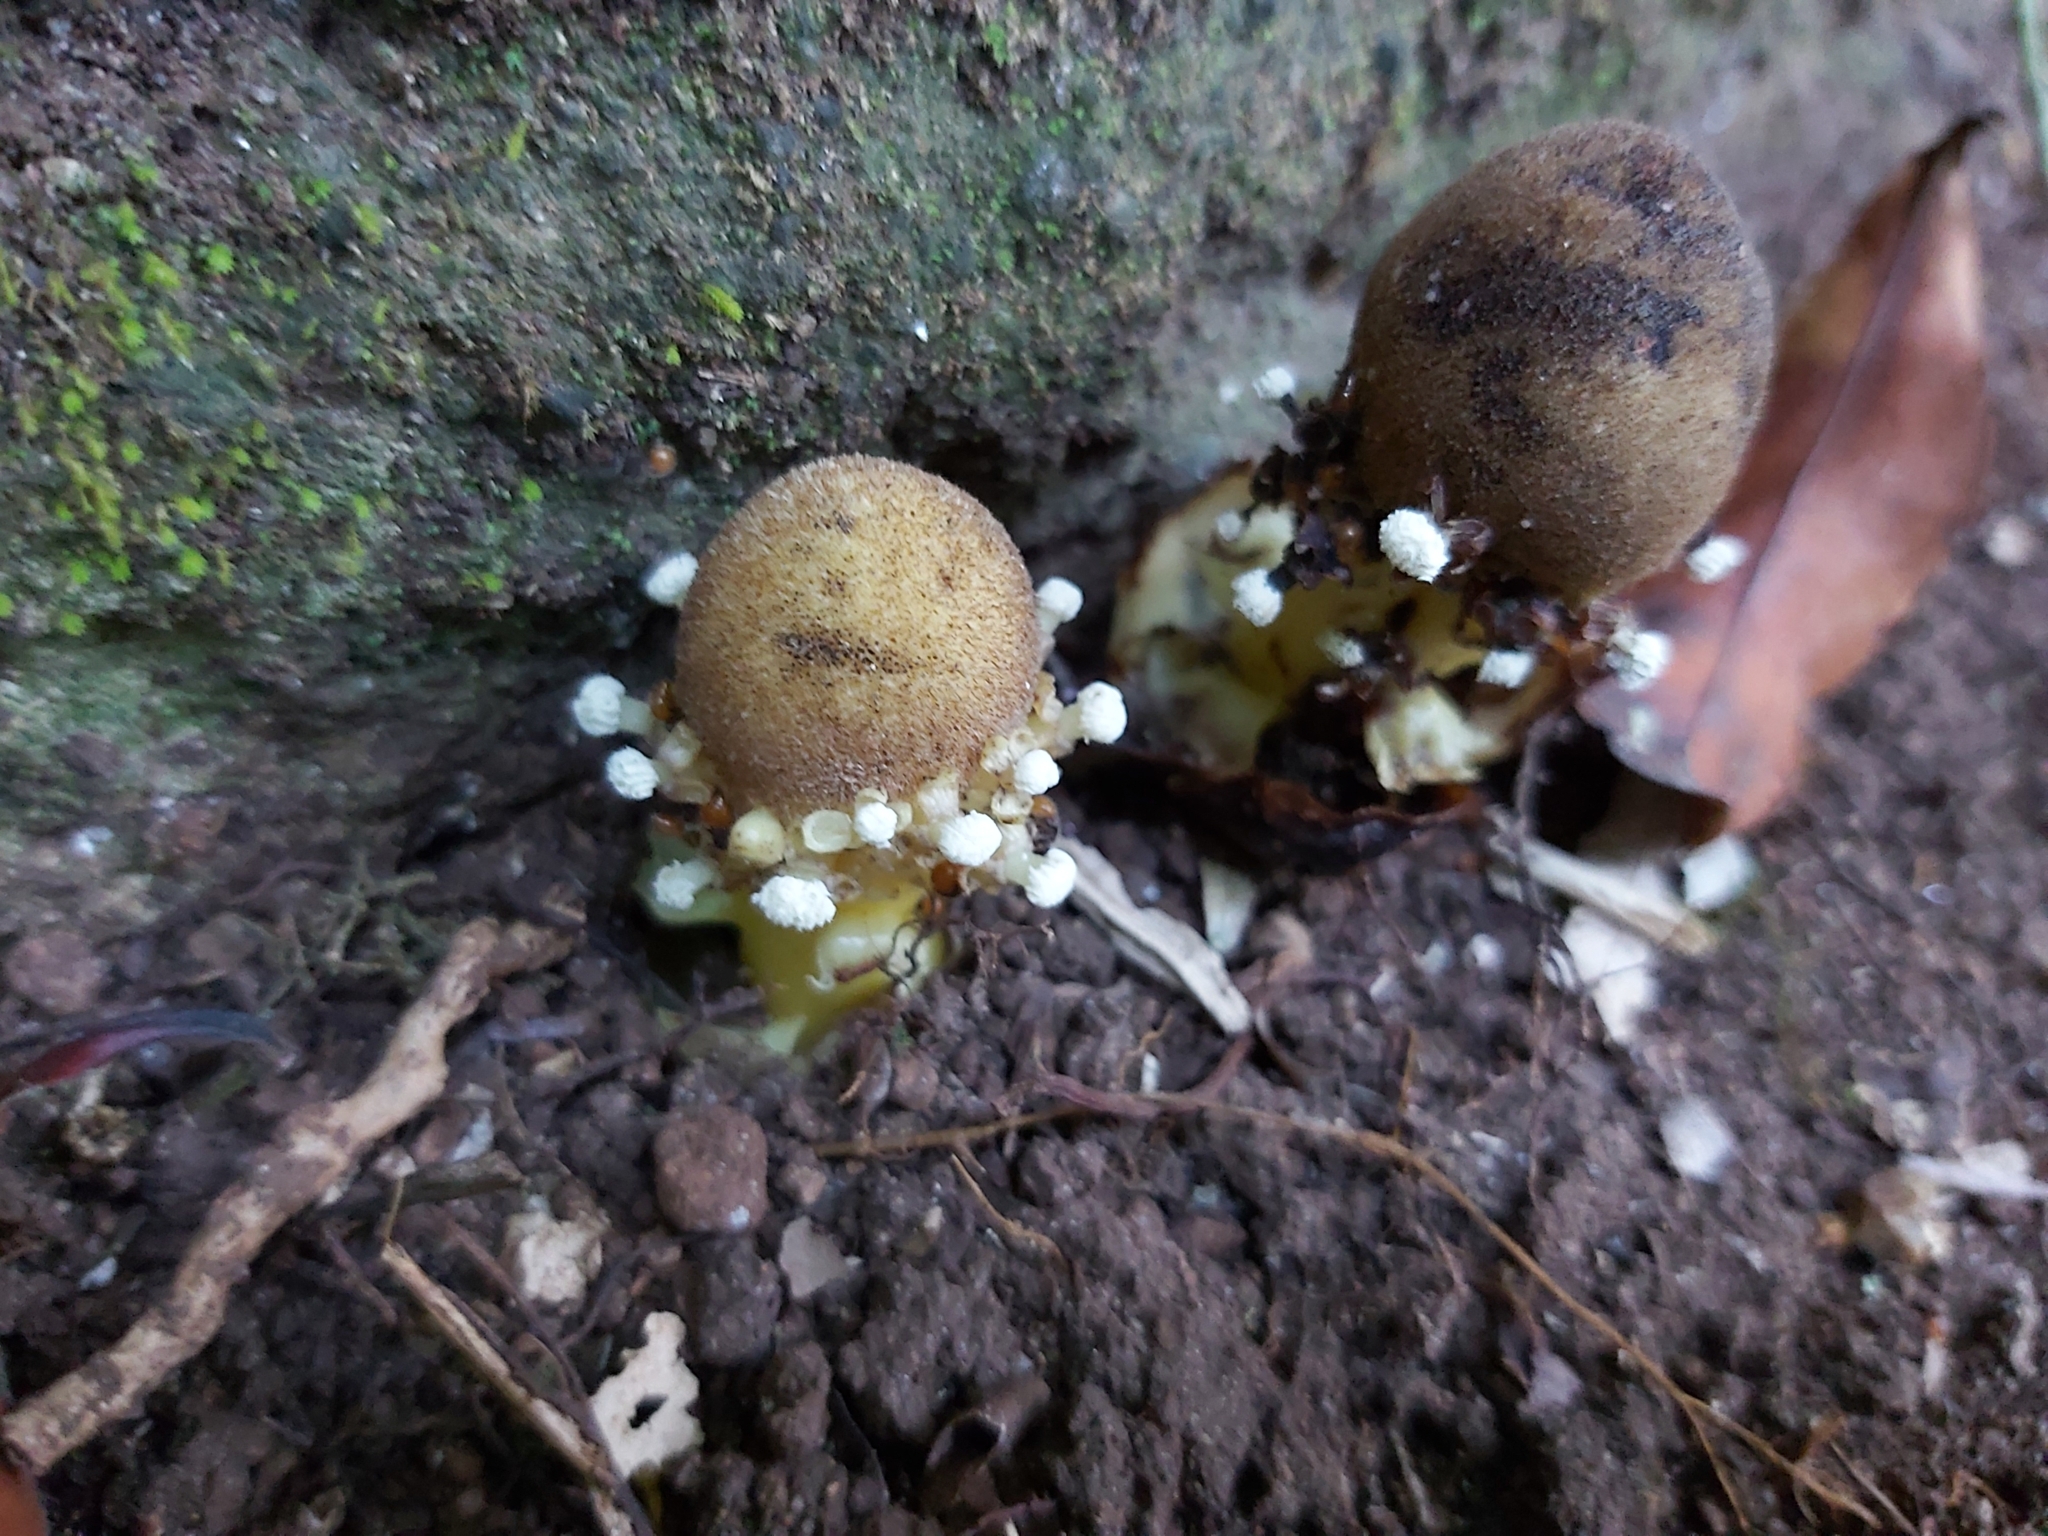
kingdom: Plantae
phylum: Tracheophyta
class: Magnoliopsida
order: Santalales
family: Balanophoraceae
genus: Balanophora
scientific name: Balanophora fungosa
